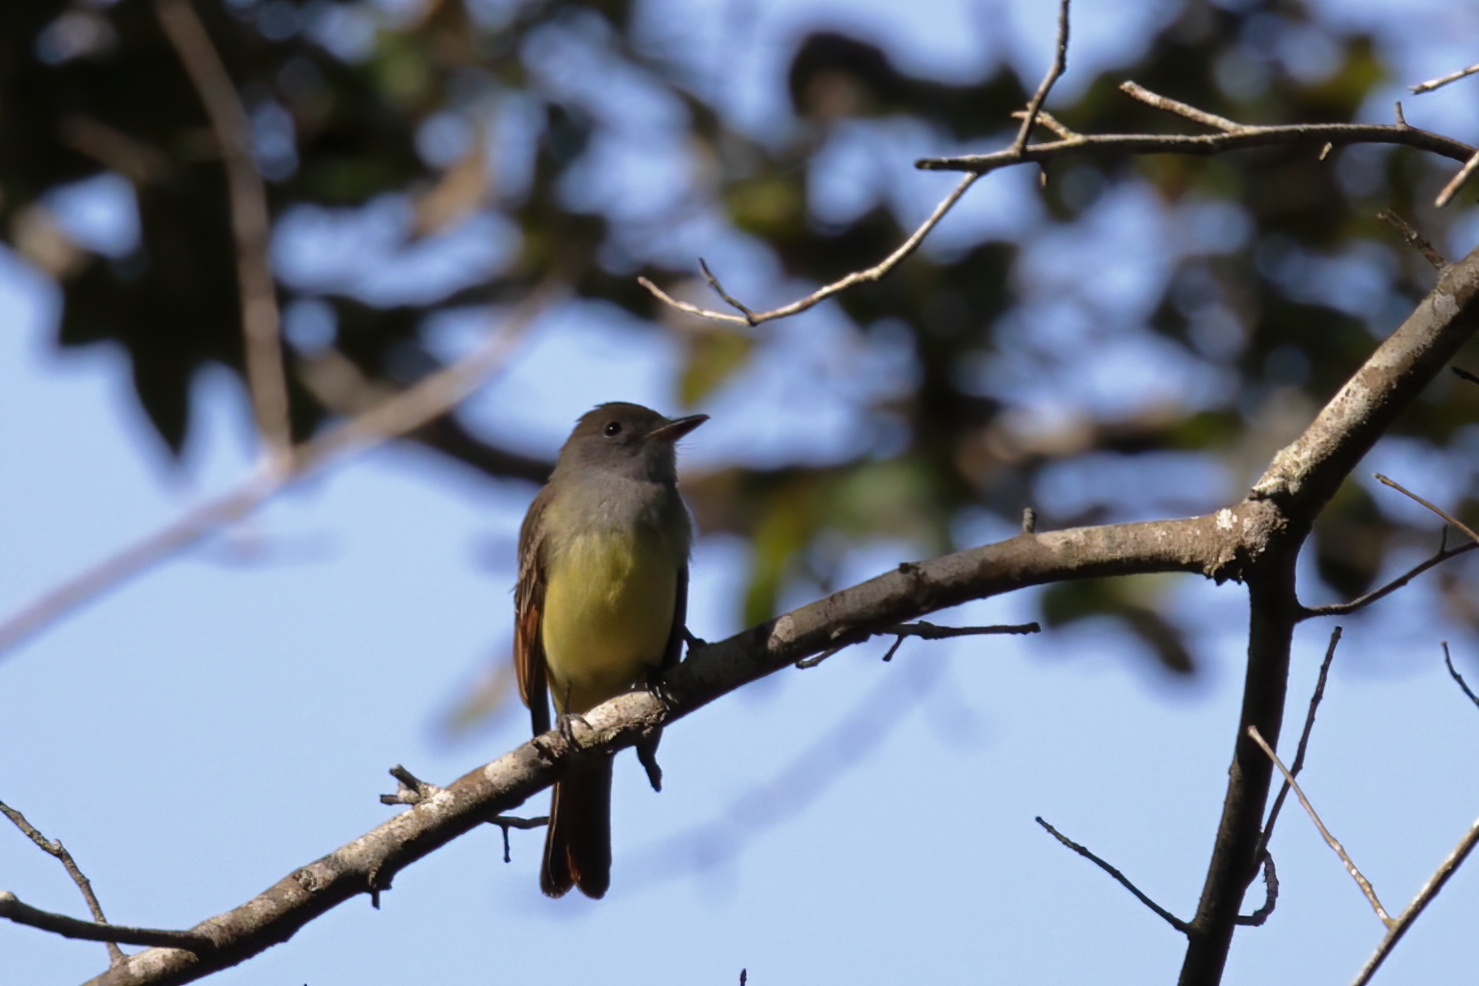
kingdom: Animalia
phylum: Chordata
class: Aves
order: Passeriformes
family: Tyrannidae
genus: Myiarchus
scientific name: Myiarchus crinitus
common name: Great crested flycatcher
